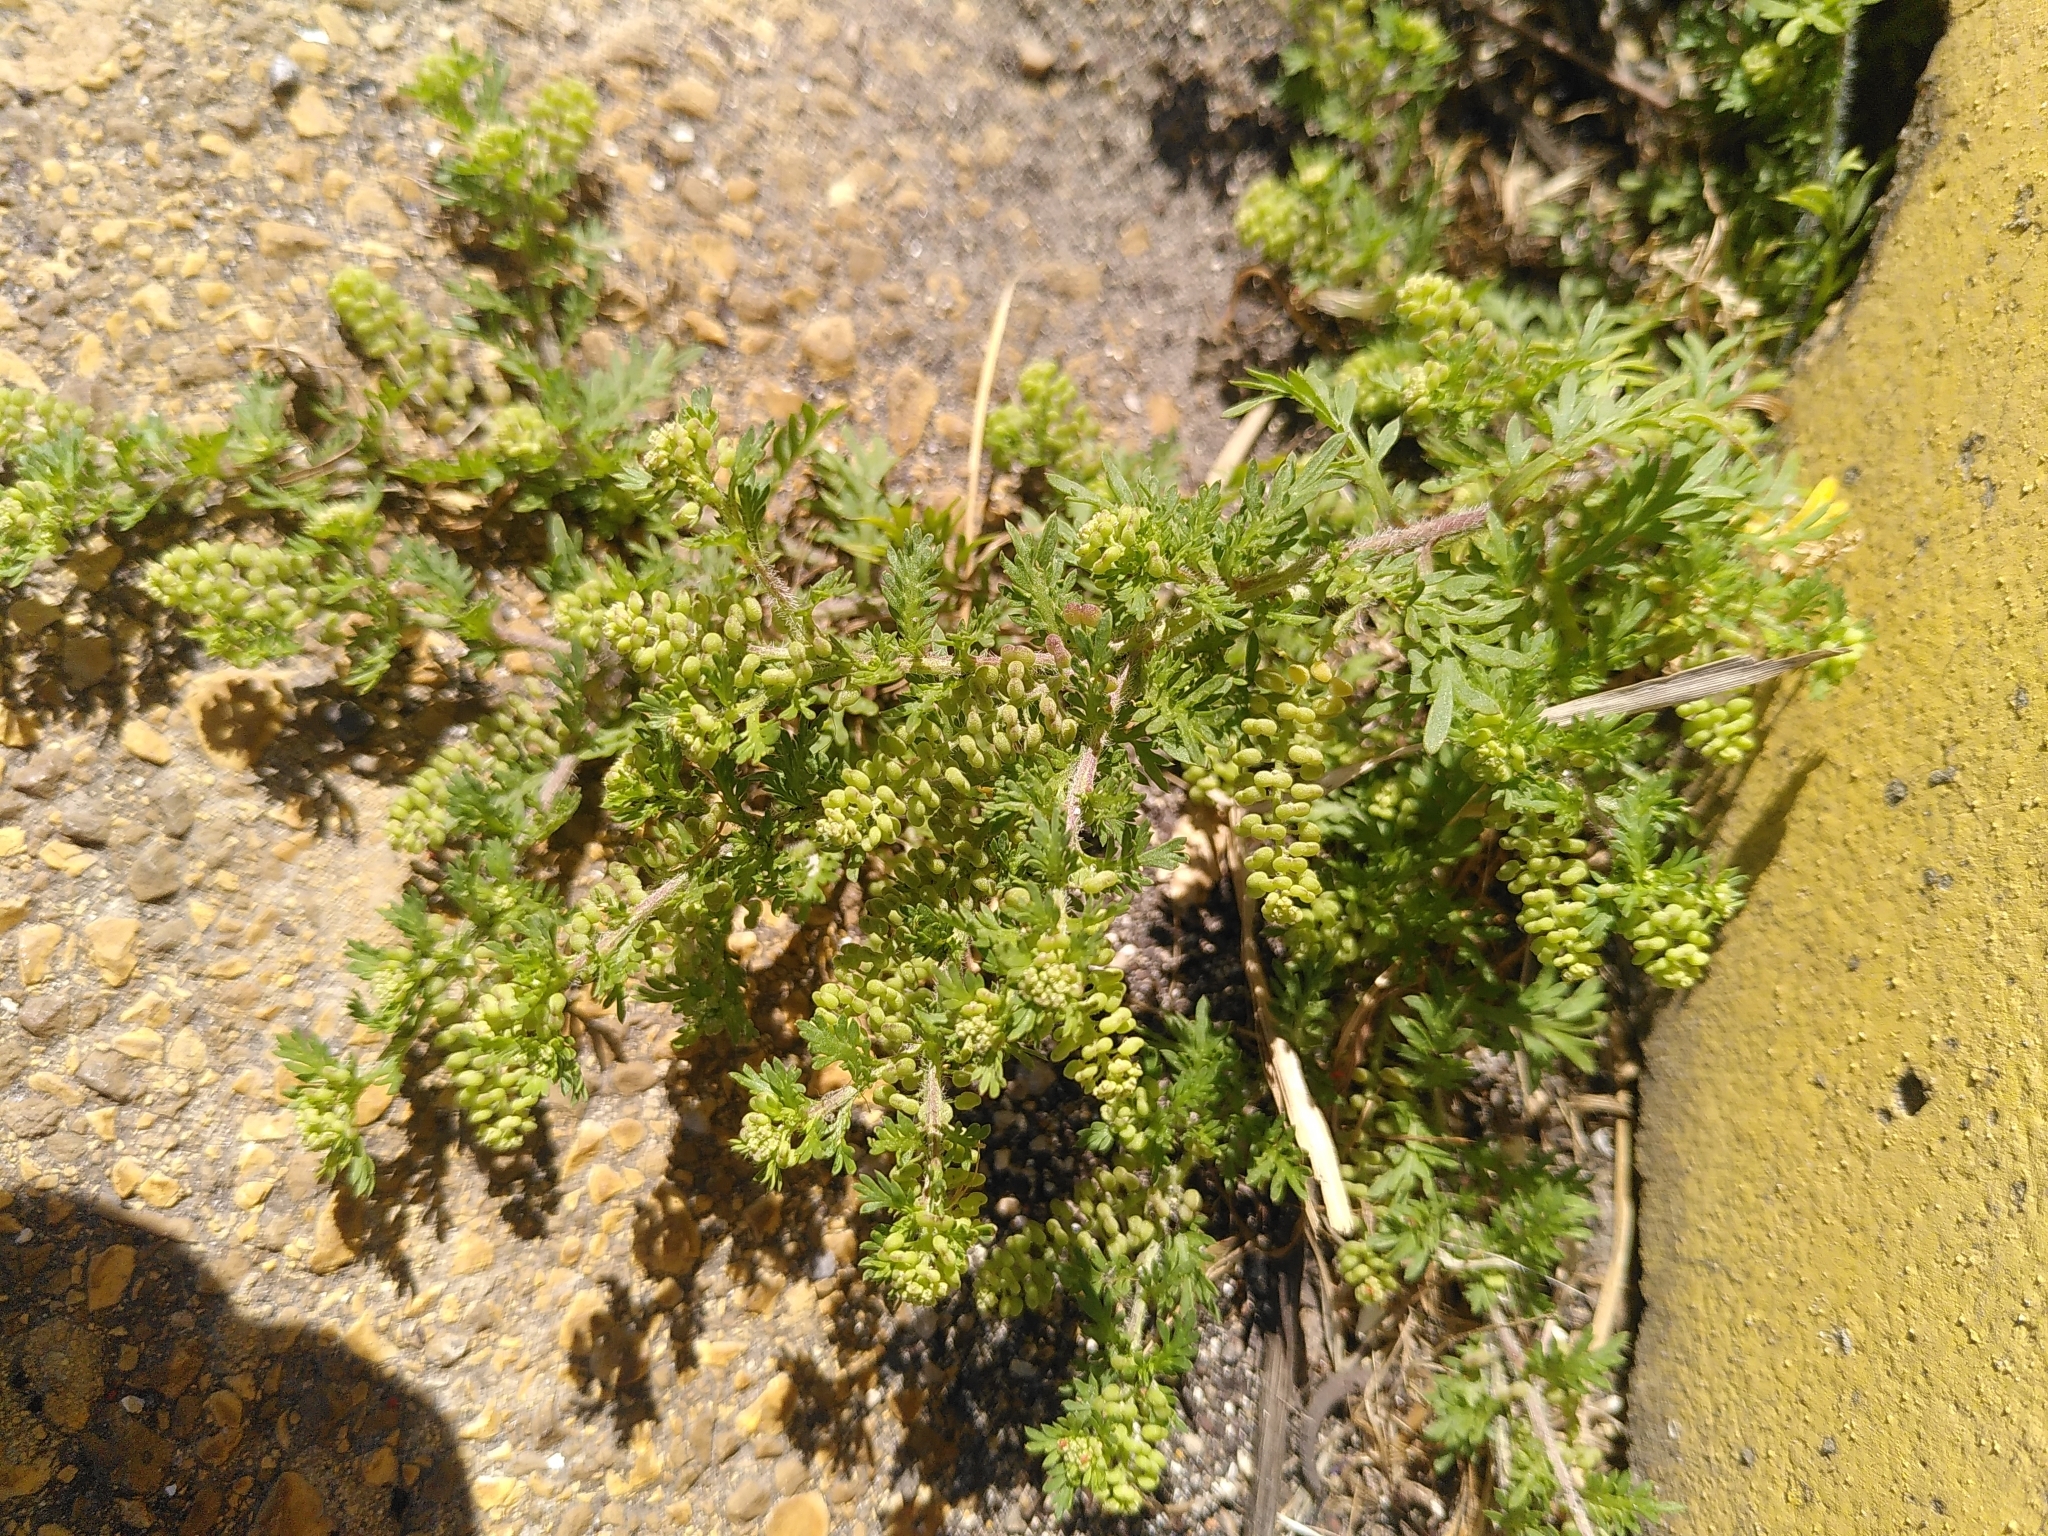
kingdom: Plantae
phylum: Tracheophyta
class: Magnoliopsida
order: Brassicales
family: Brassicaceae
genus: Lepidium
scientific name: Lepidium didymum
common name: Lesser swinecress
